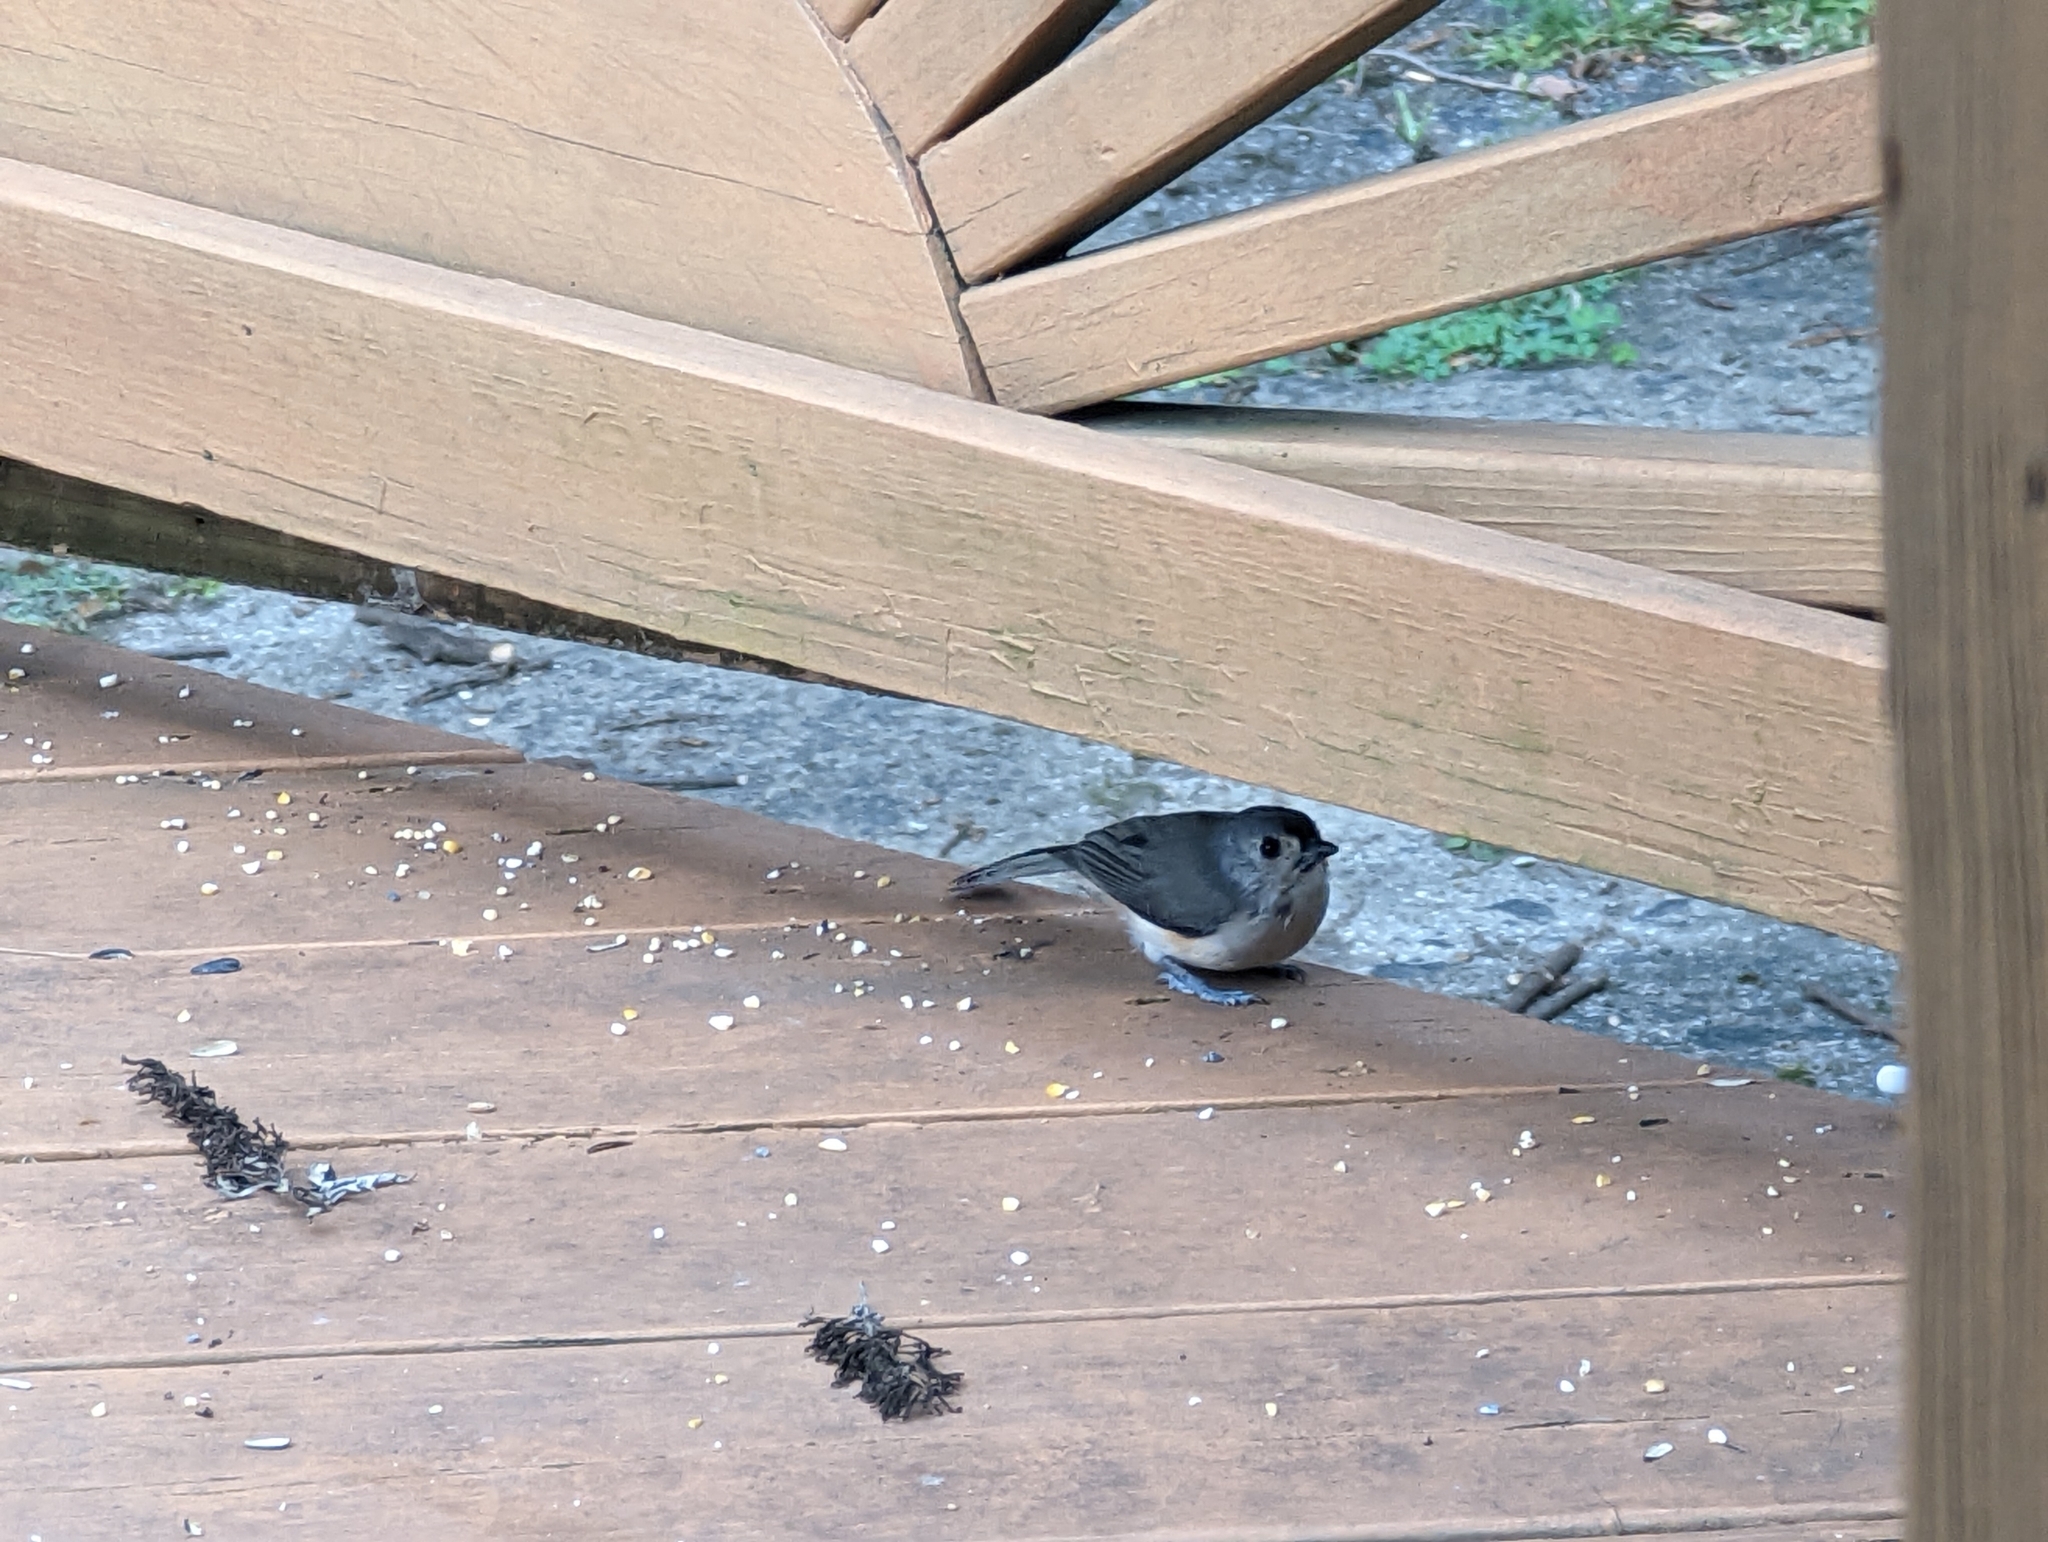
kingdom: Animalia
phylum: Chordata
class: Aves
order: Passeriformes
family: Paridae
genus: Baeolophus
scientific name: Baeolophus bicolor
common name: Tufted titmouse
